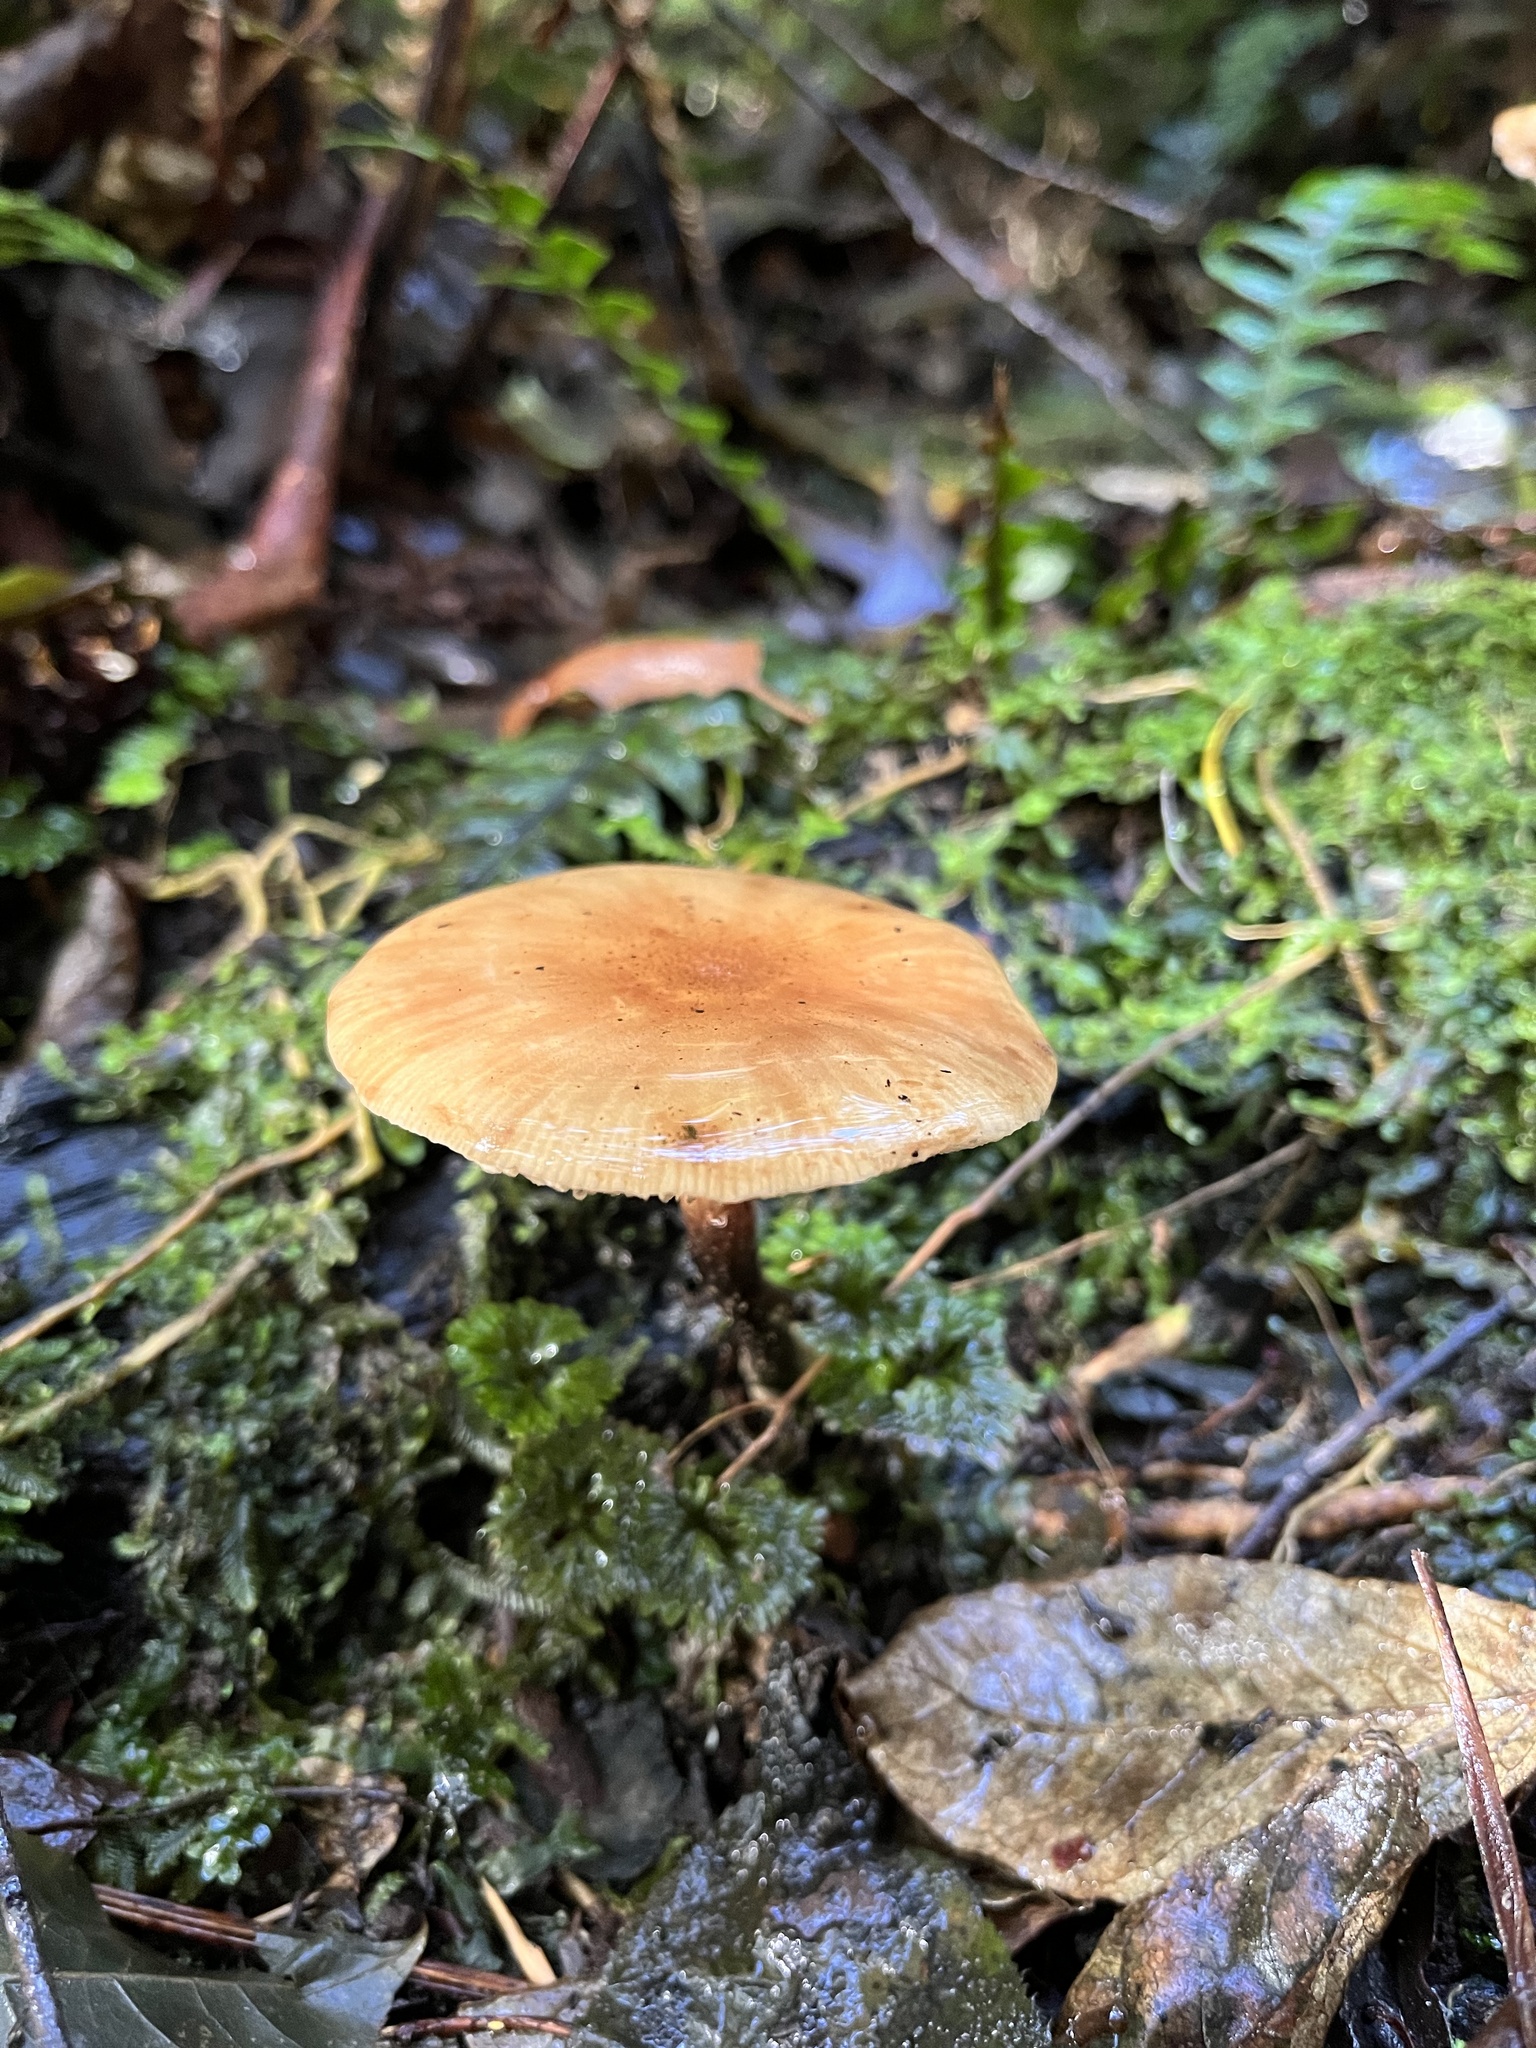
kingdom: Fungi
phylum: Basidiomycota
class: Agaricomycetes
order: Agaricales
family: Physalacriaceae
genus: Armillaria
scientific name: Armillaria novae-zelandiae
